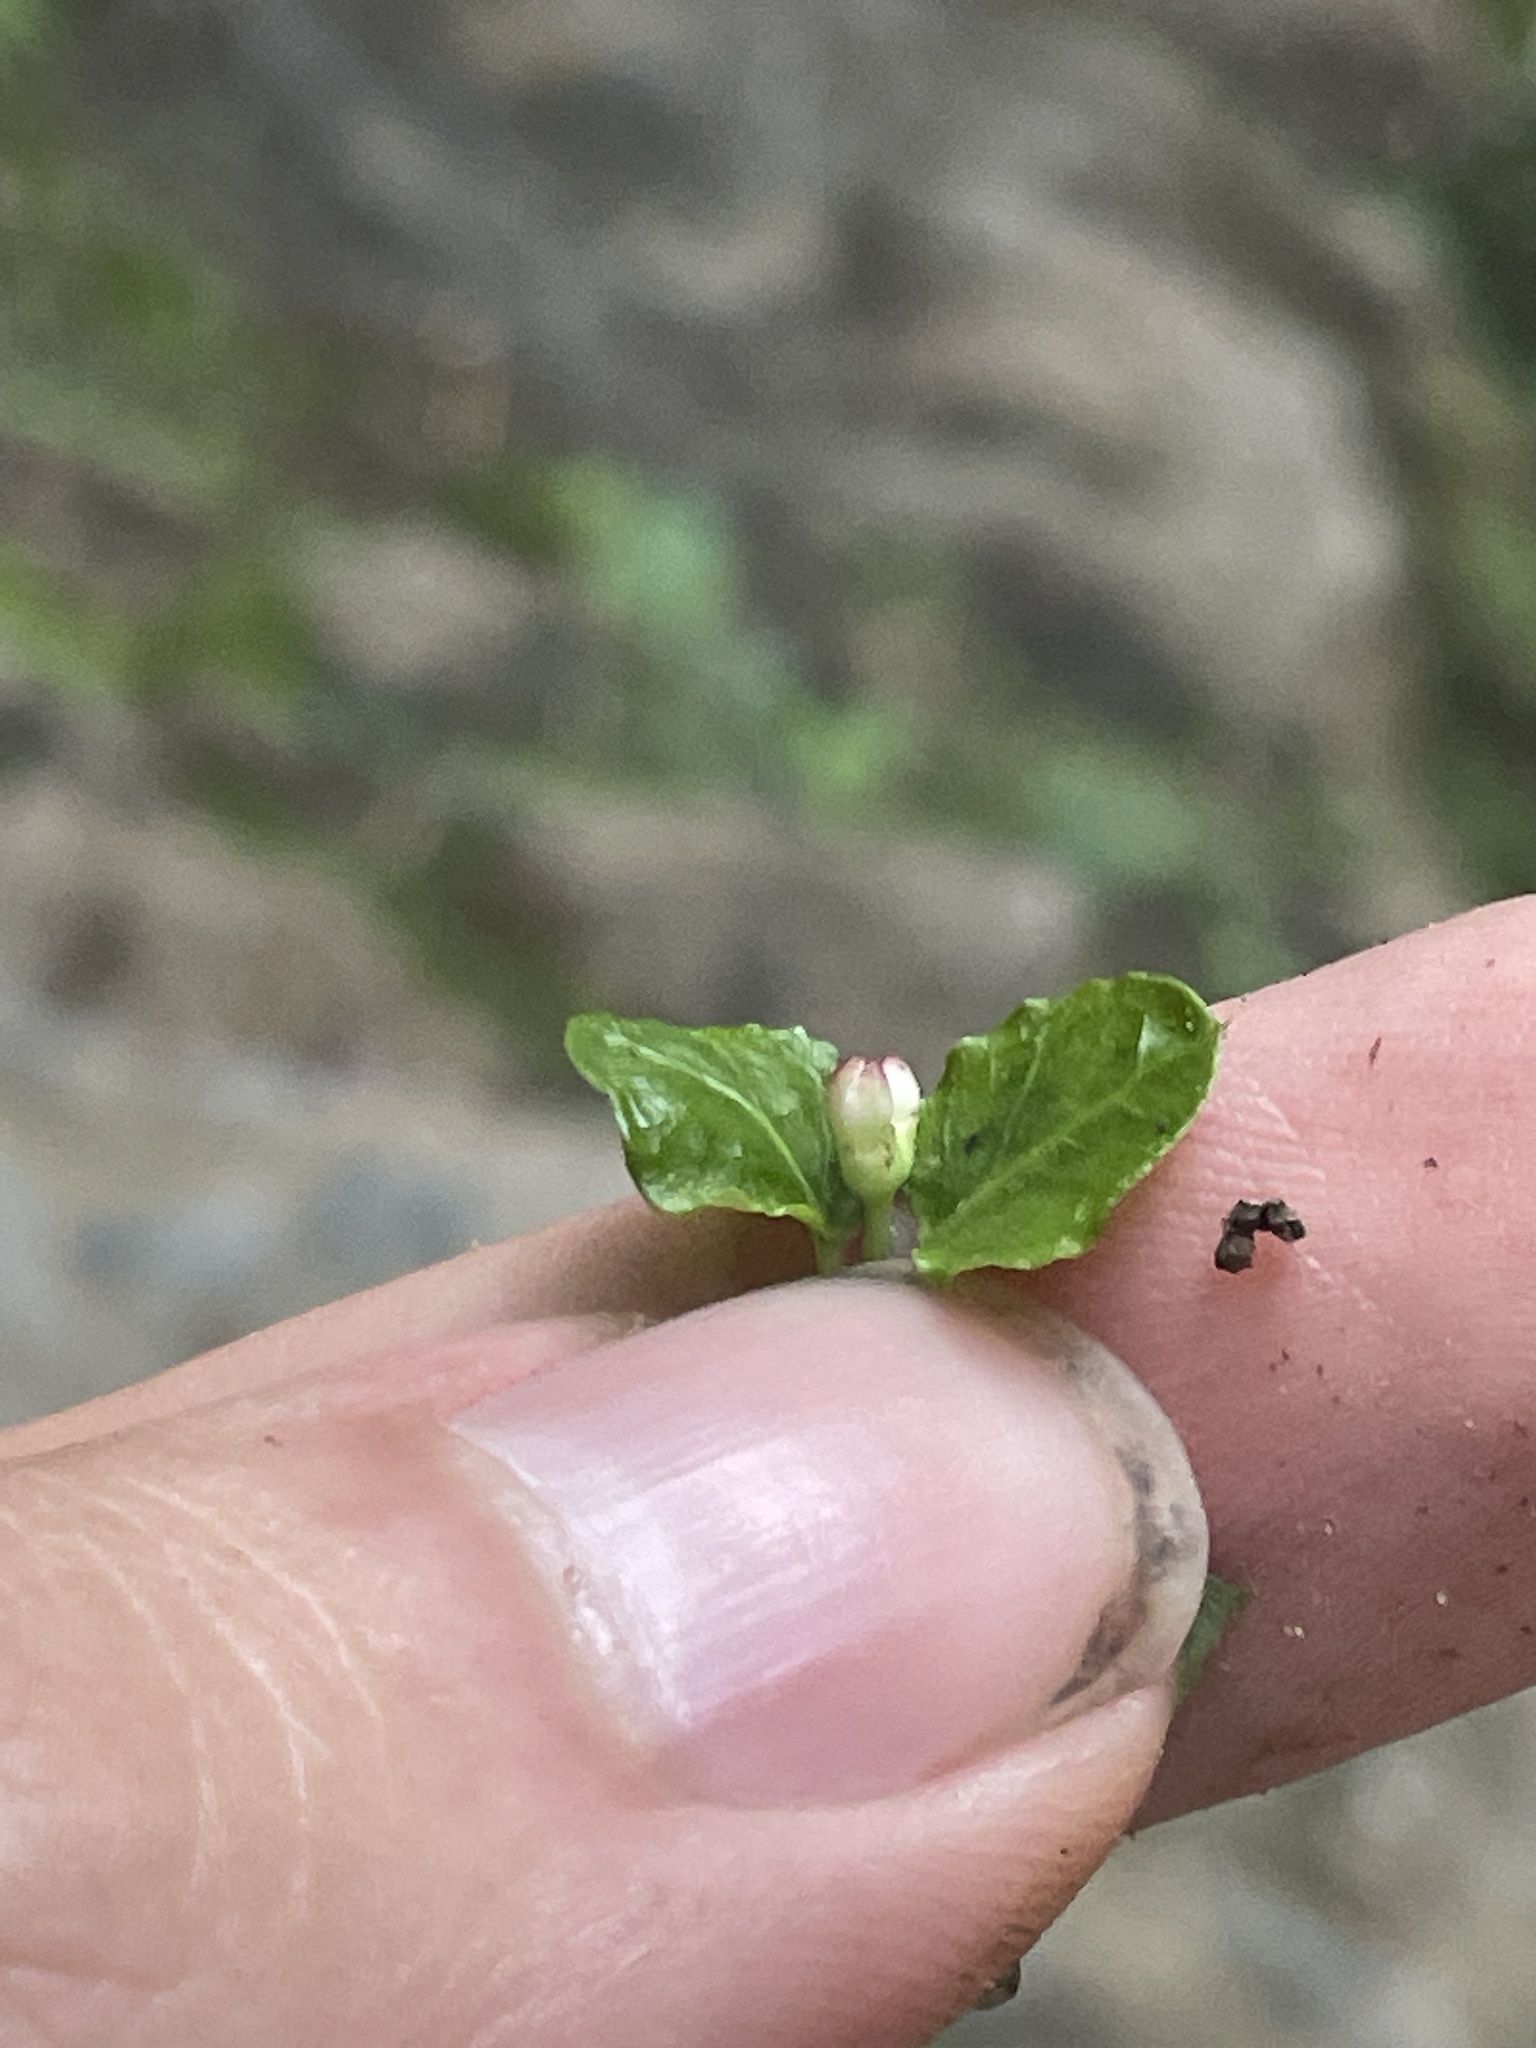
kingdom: Plantae
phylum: Tracheophyta
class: Magnoliopsida
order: Gentianales
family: Rubiaceae
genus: Mitchella
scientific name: Mitchella repens
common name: Partridge-berry
